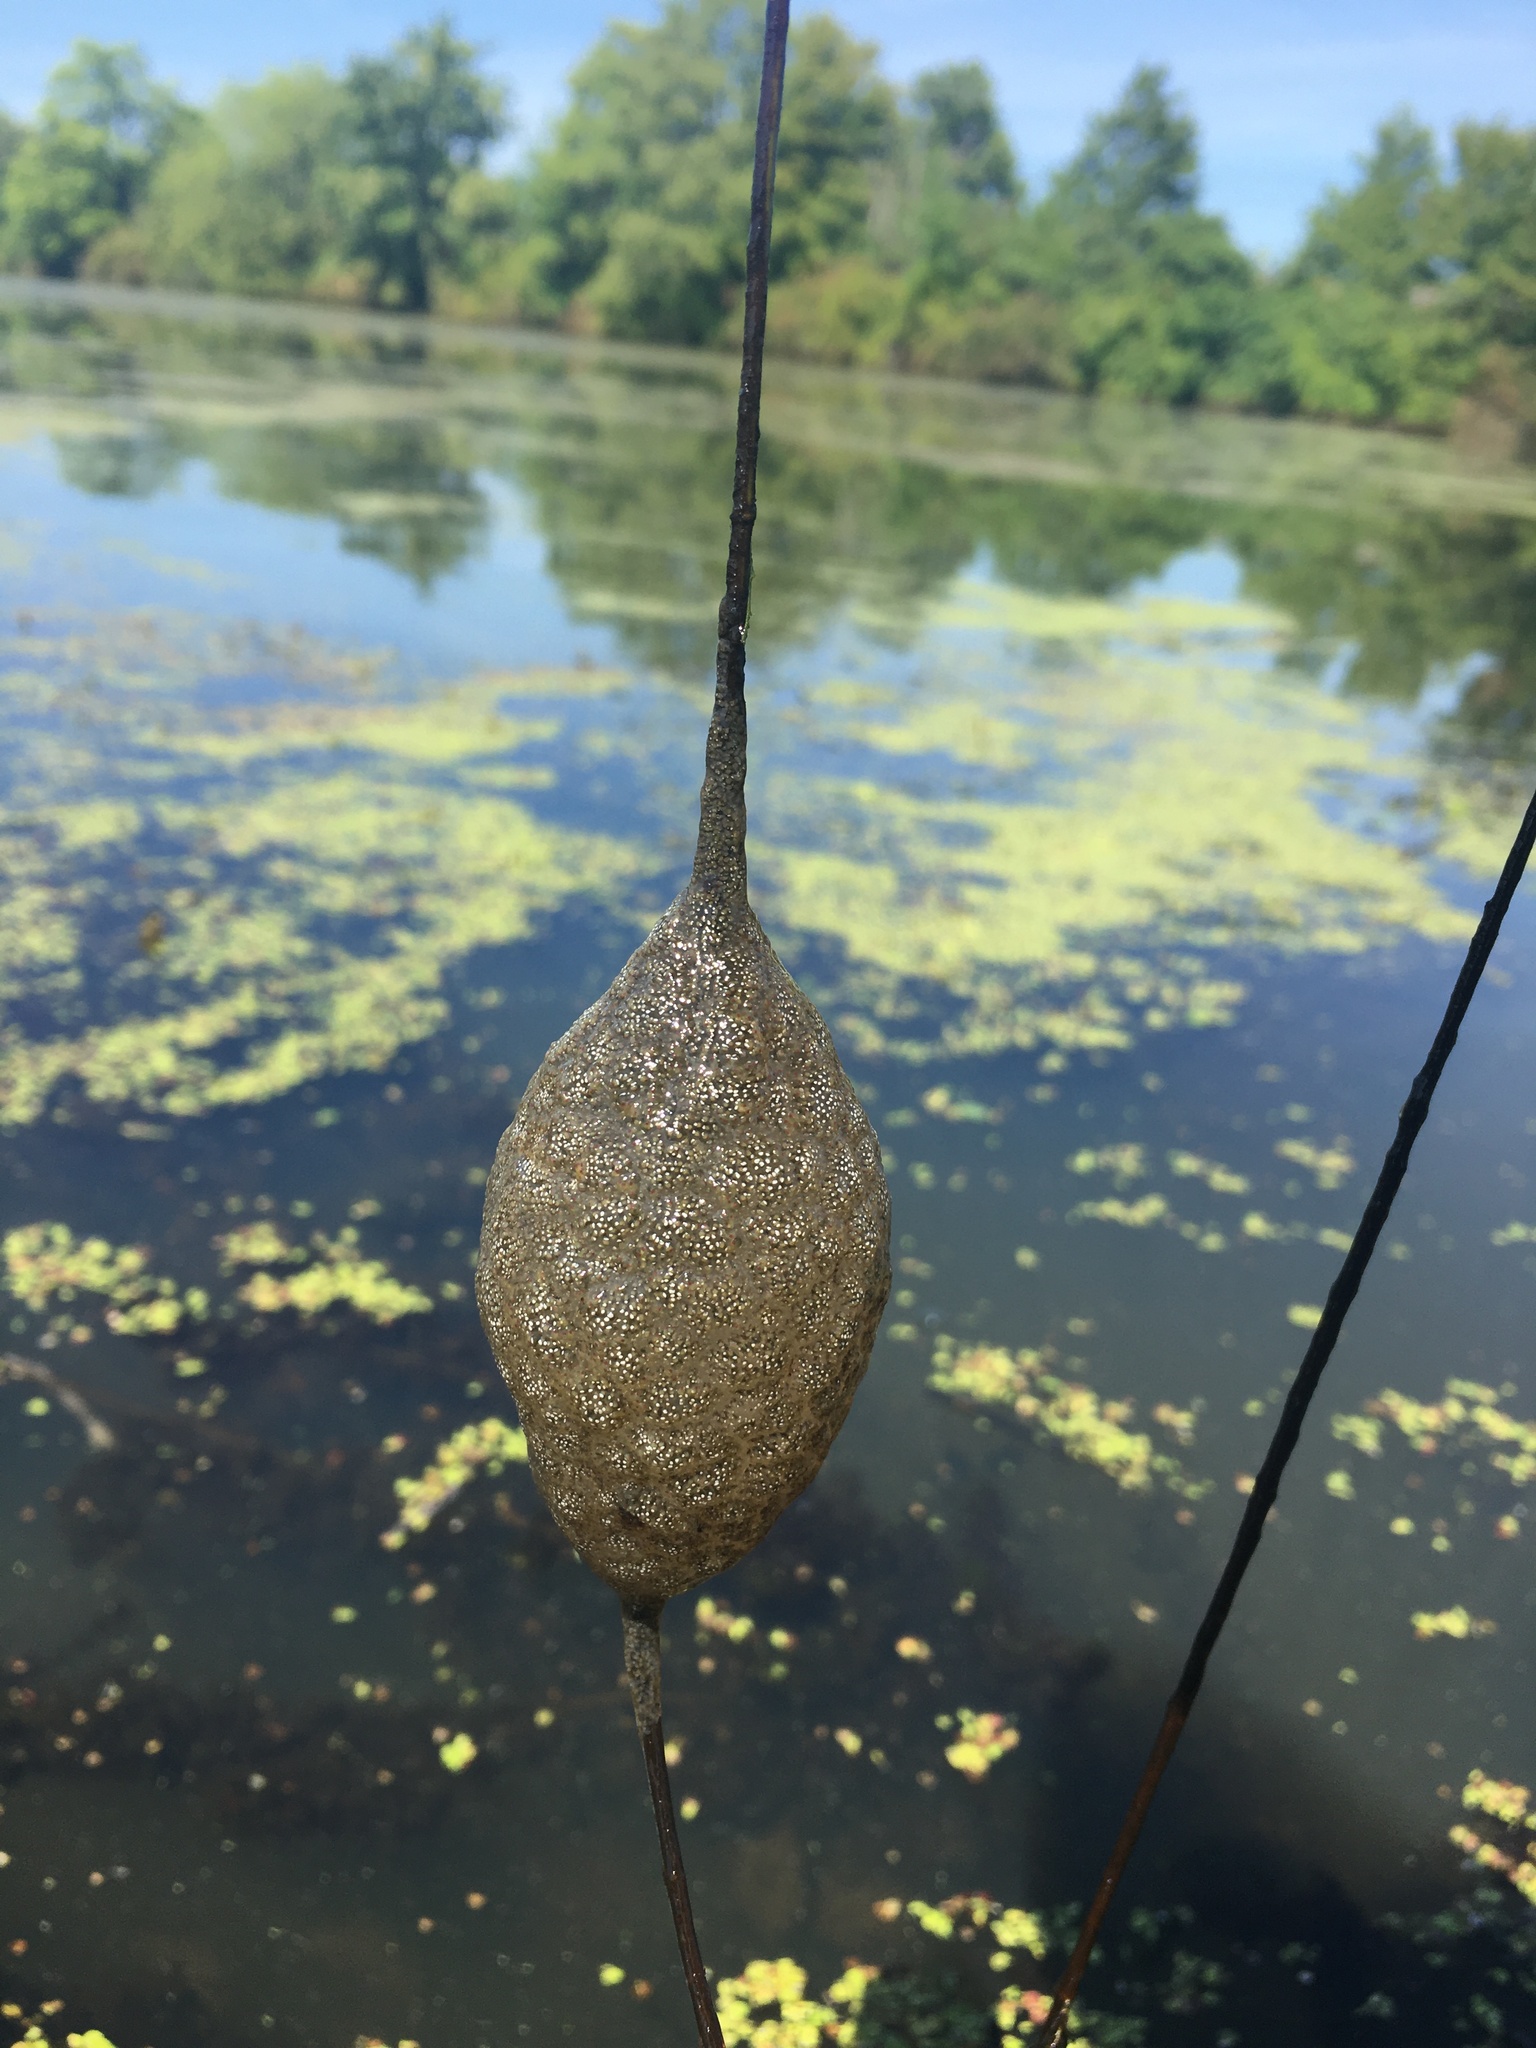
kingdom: Animalia
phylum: Bryozoa
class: Phylactolaemata
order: Plumatellida
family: Pectinatellidae
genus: Pectinatella
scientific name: Pectinatella magnifica
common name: Magnificent bryozoan
